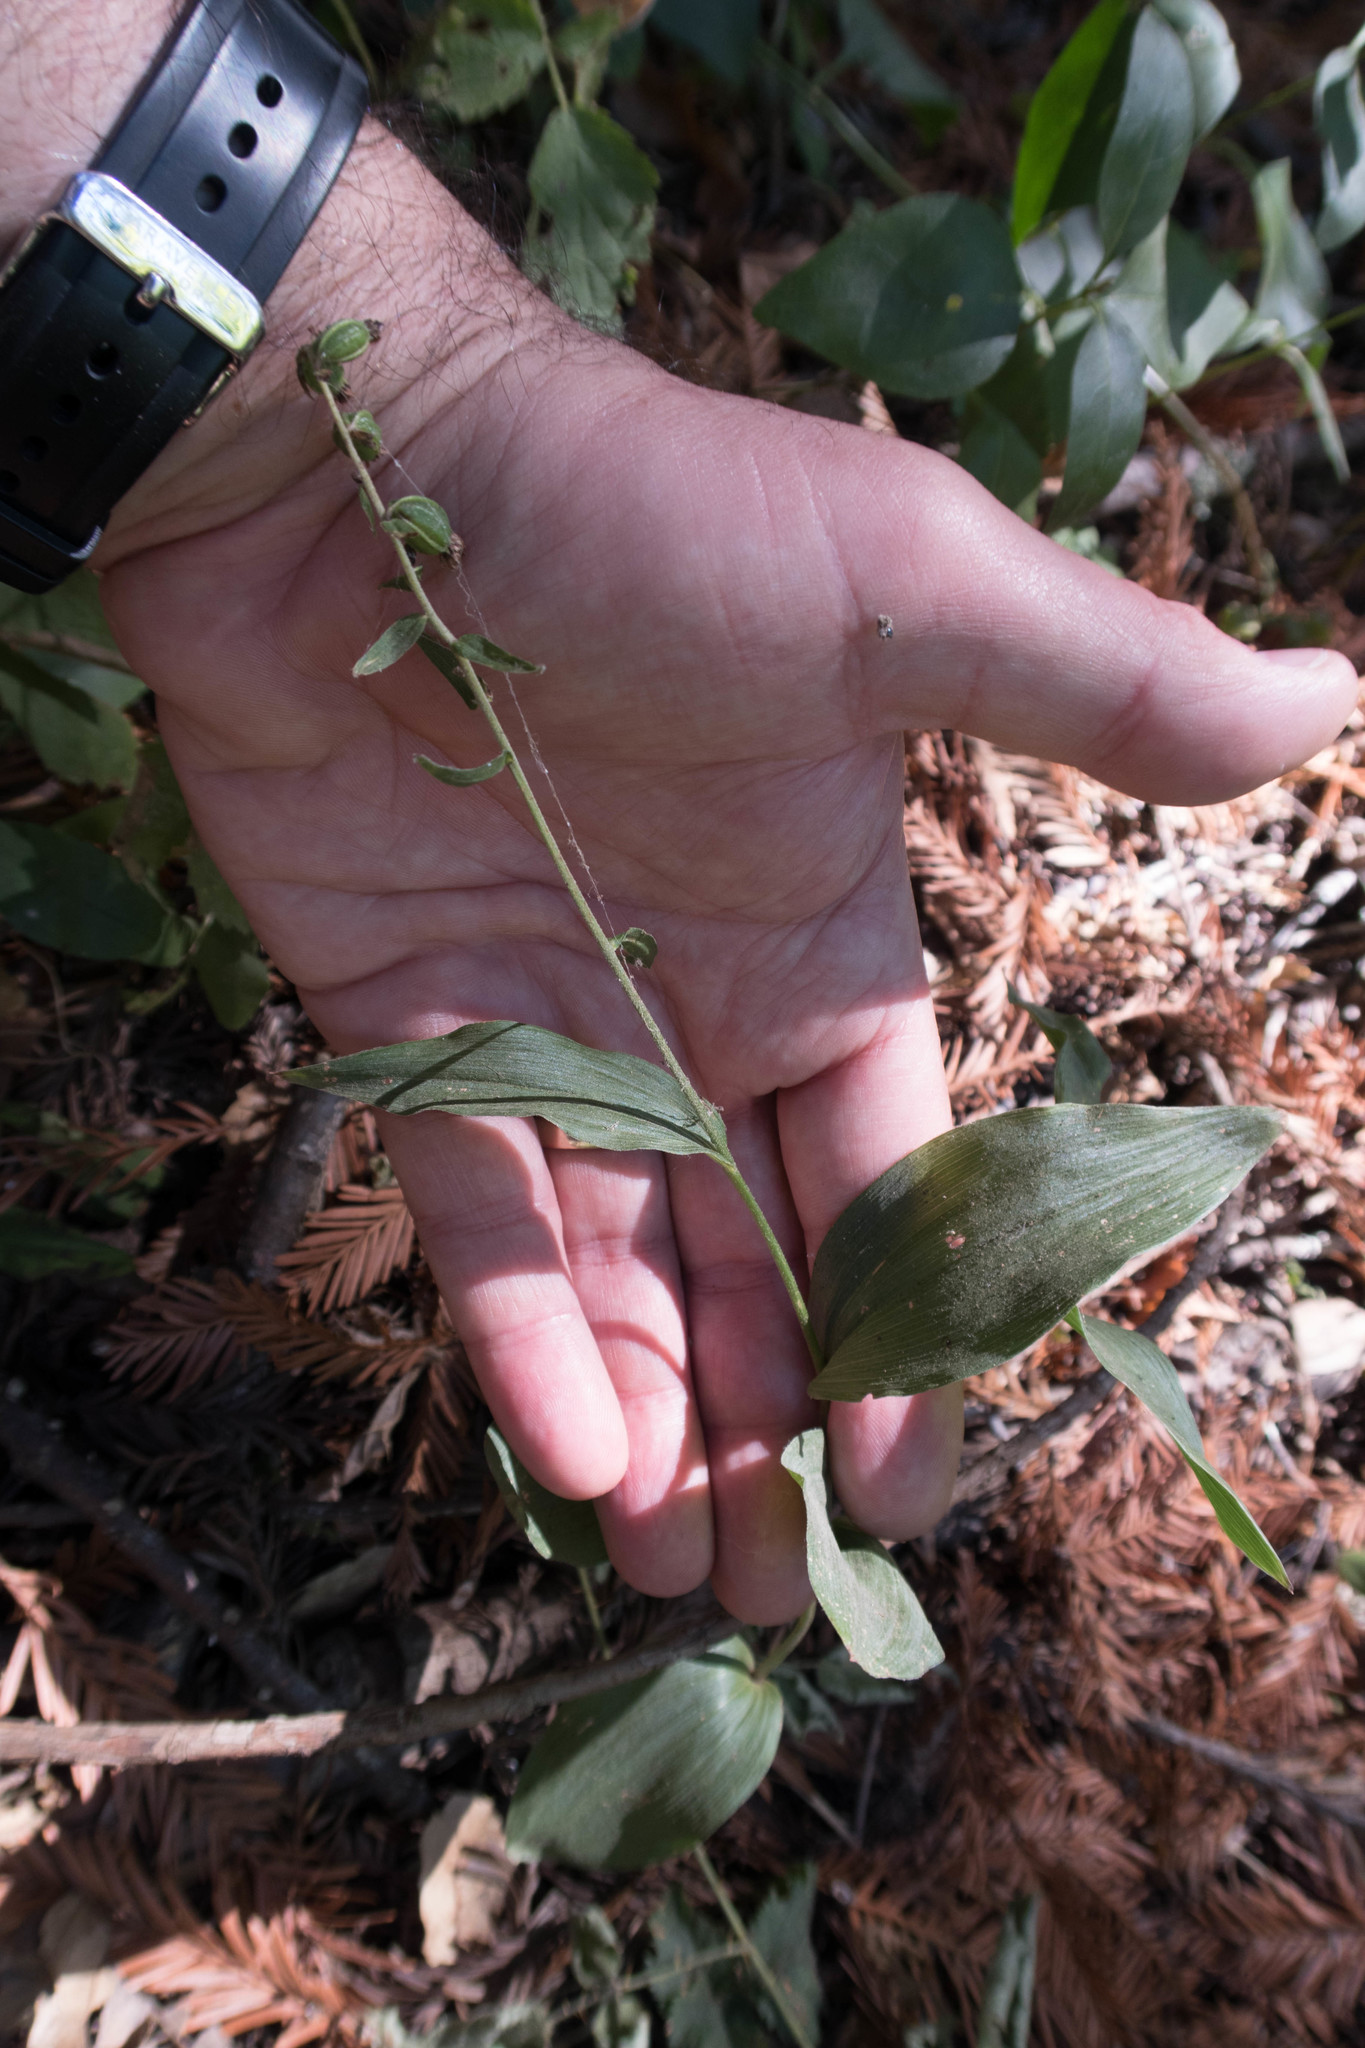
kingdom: Plantae
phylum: Tracheophyta
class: Liliopsida
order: Asparagales
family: Orchidaceae
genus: Epipactis
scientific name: Epipactis helleborine
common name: Broad-leaved helleborine
